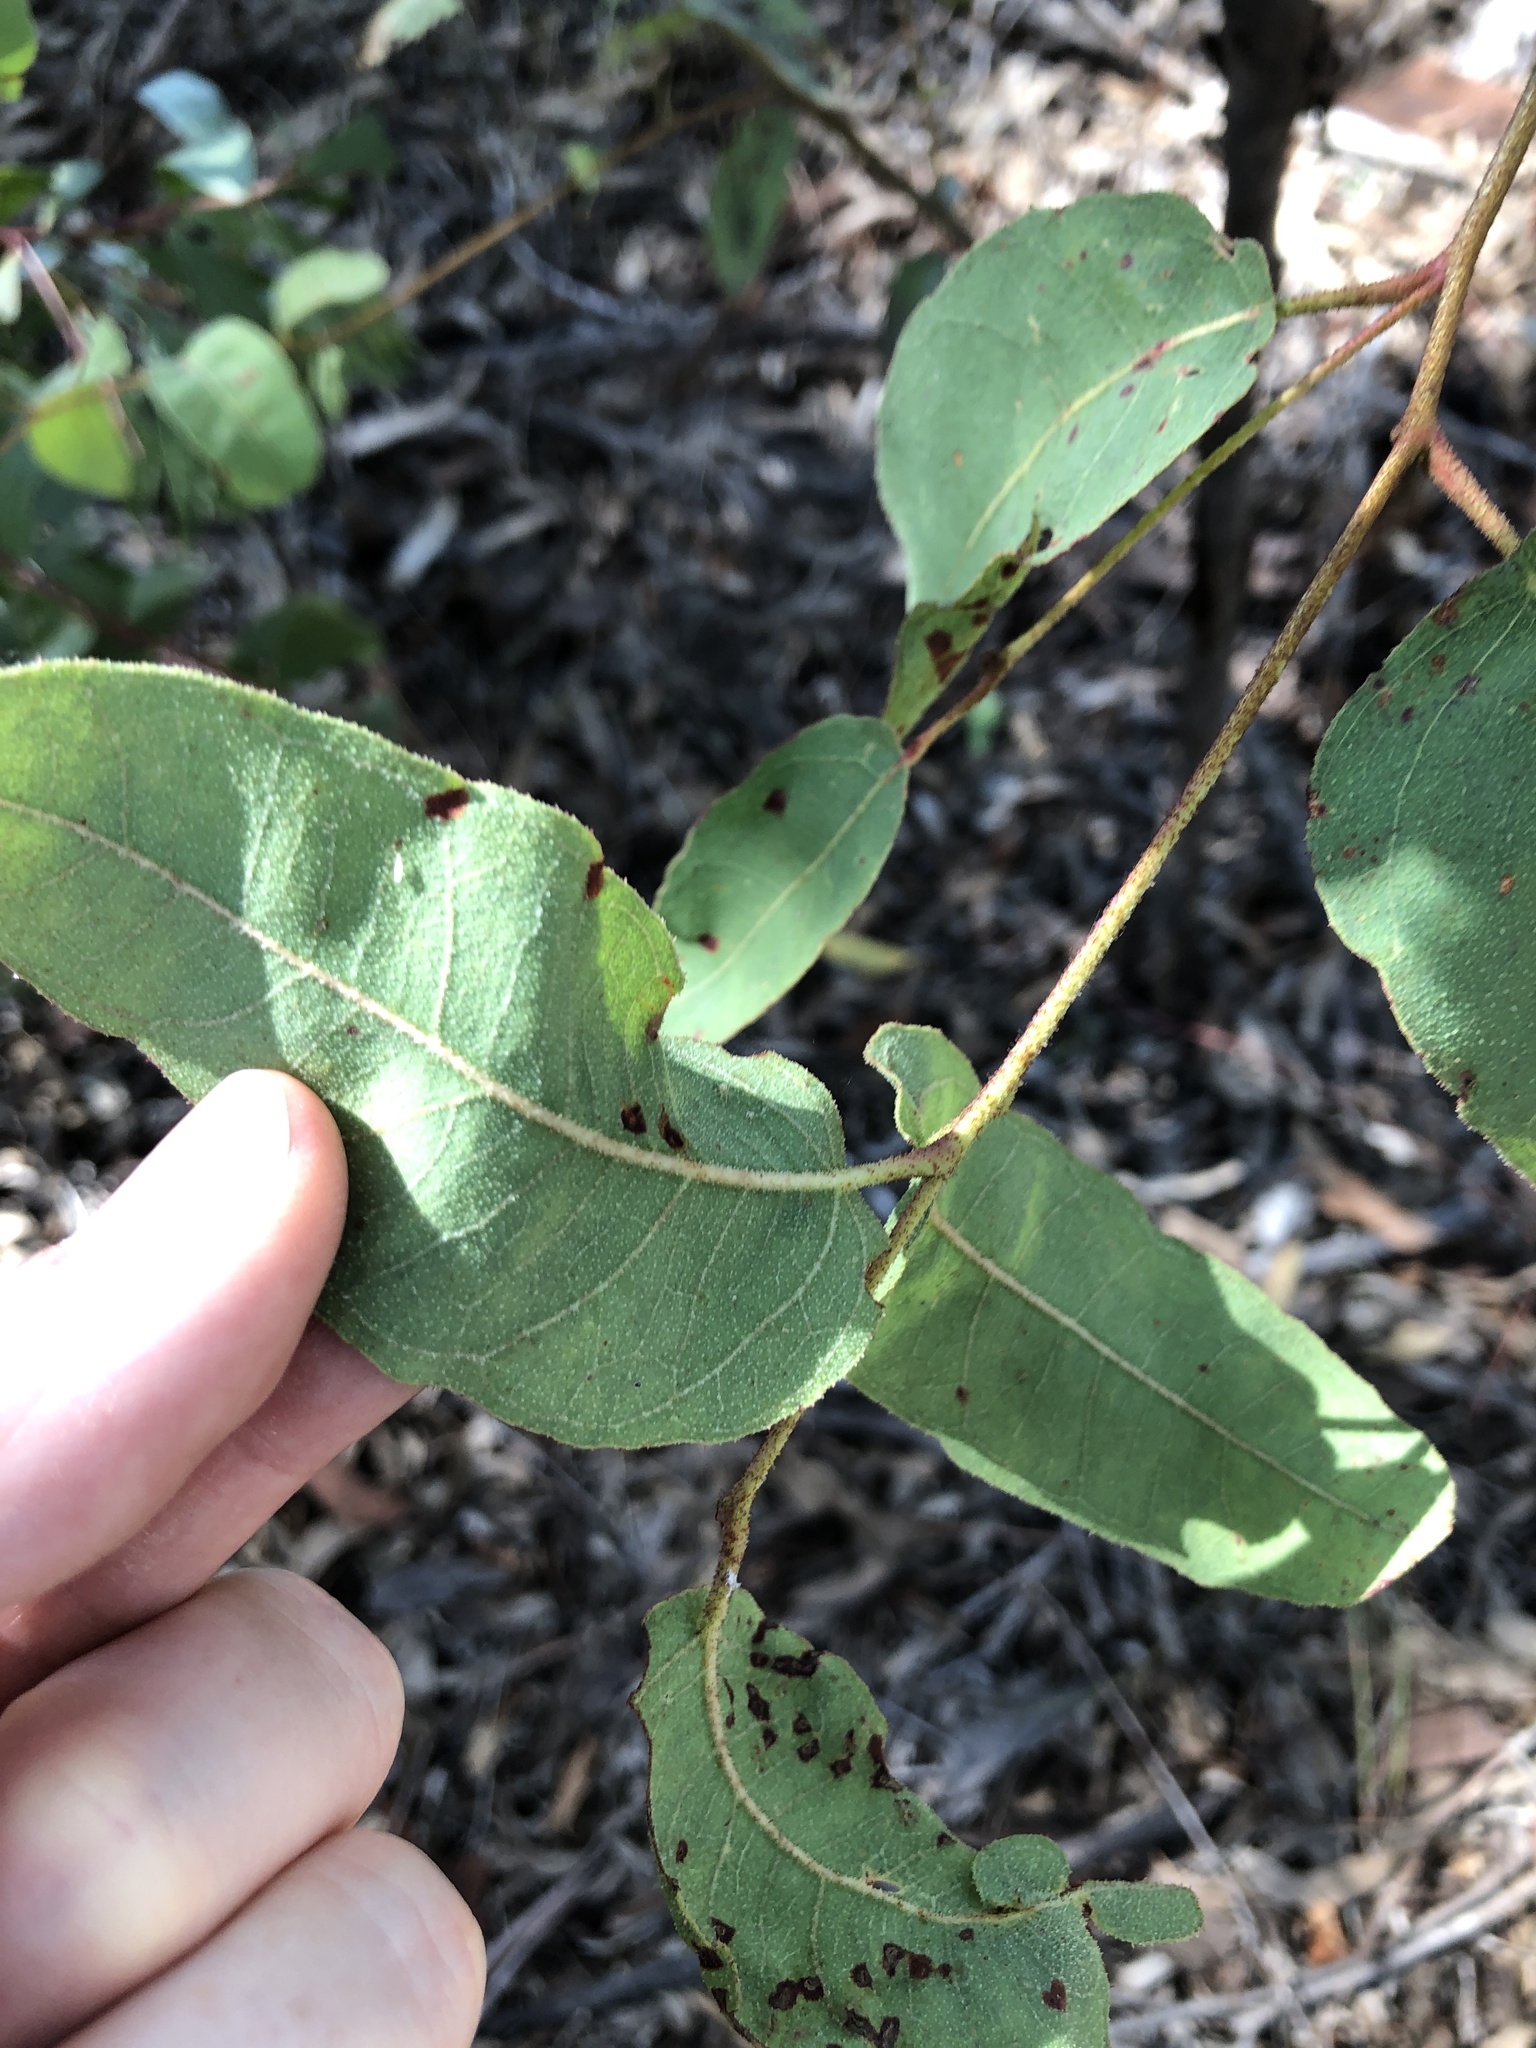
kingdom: Plantae
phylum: Tracheophyta
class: Magnoliopsida
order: Myrtales
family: Myrtaceae
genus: Corymbia
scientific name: Corymbia torelliana
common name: Cadaghi
